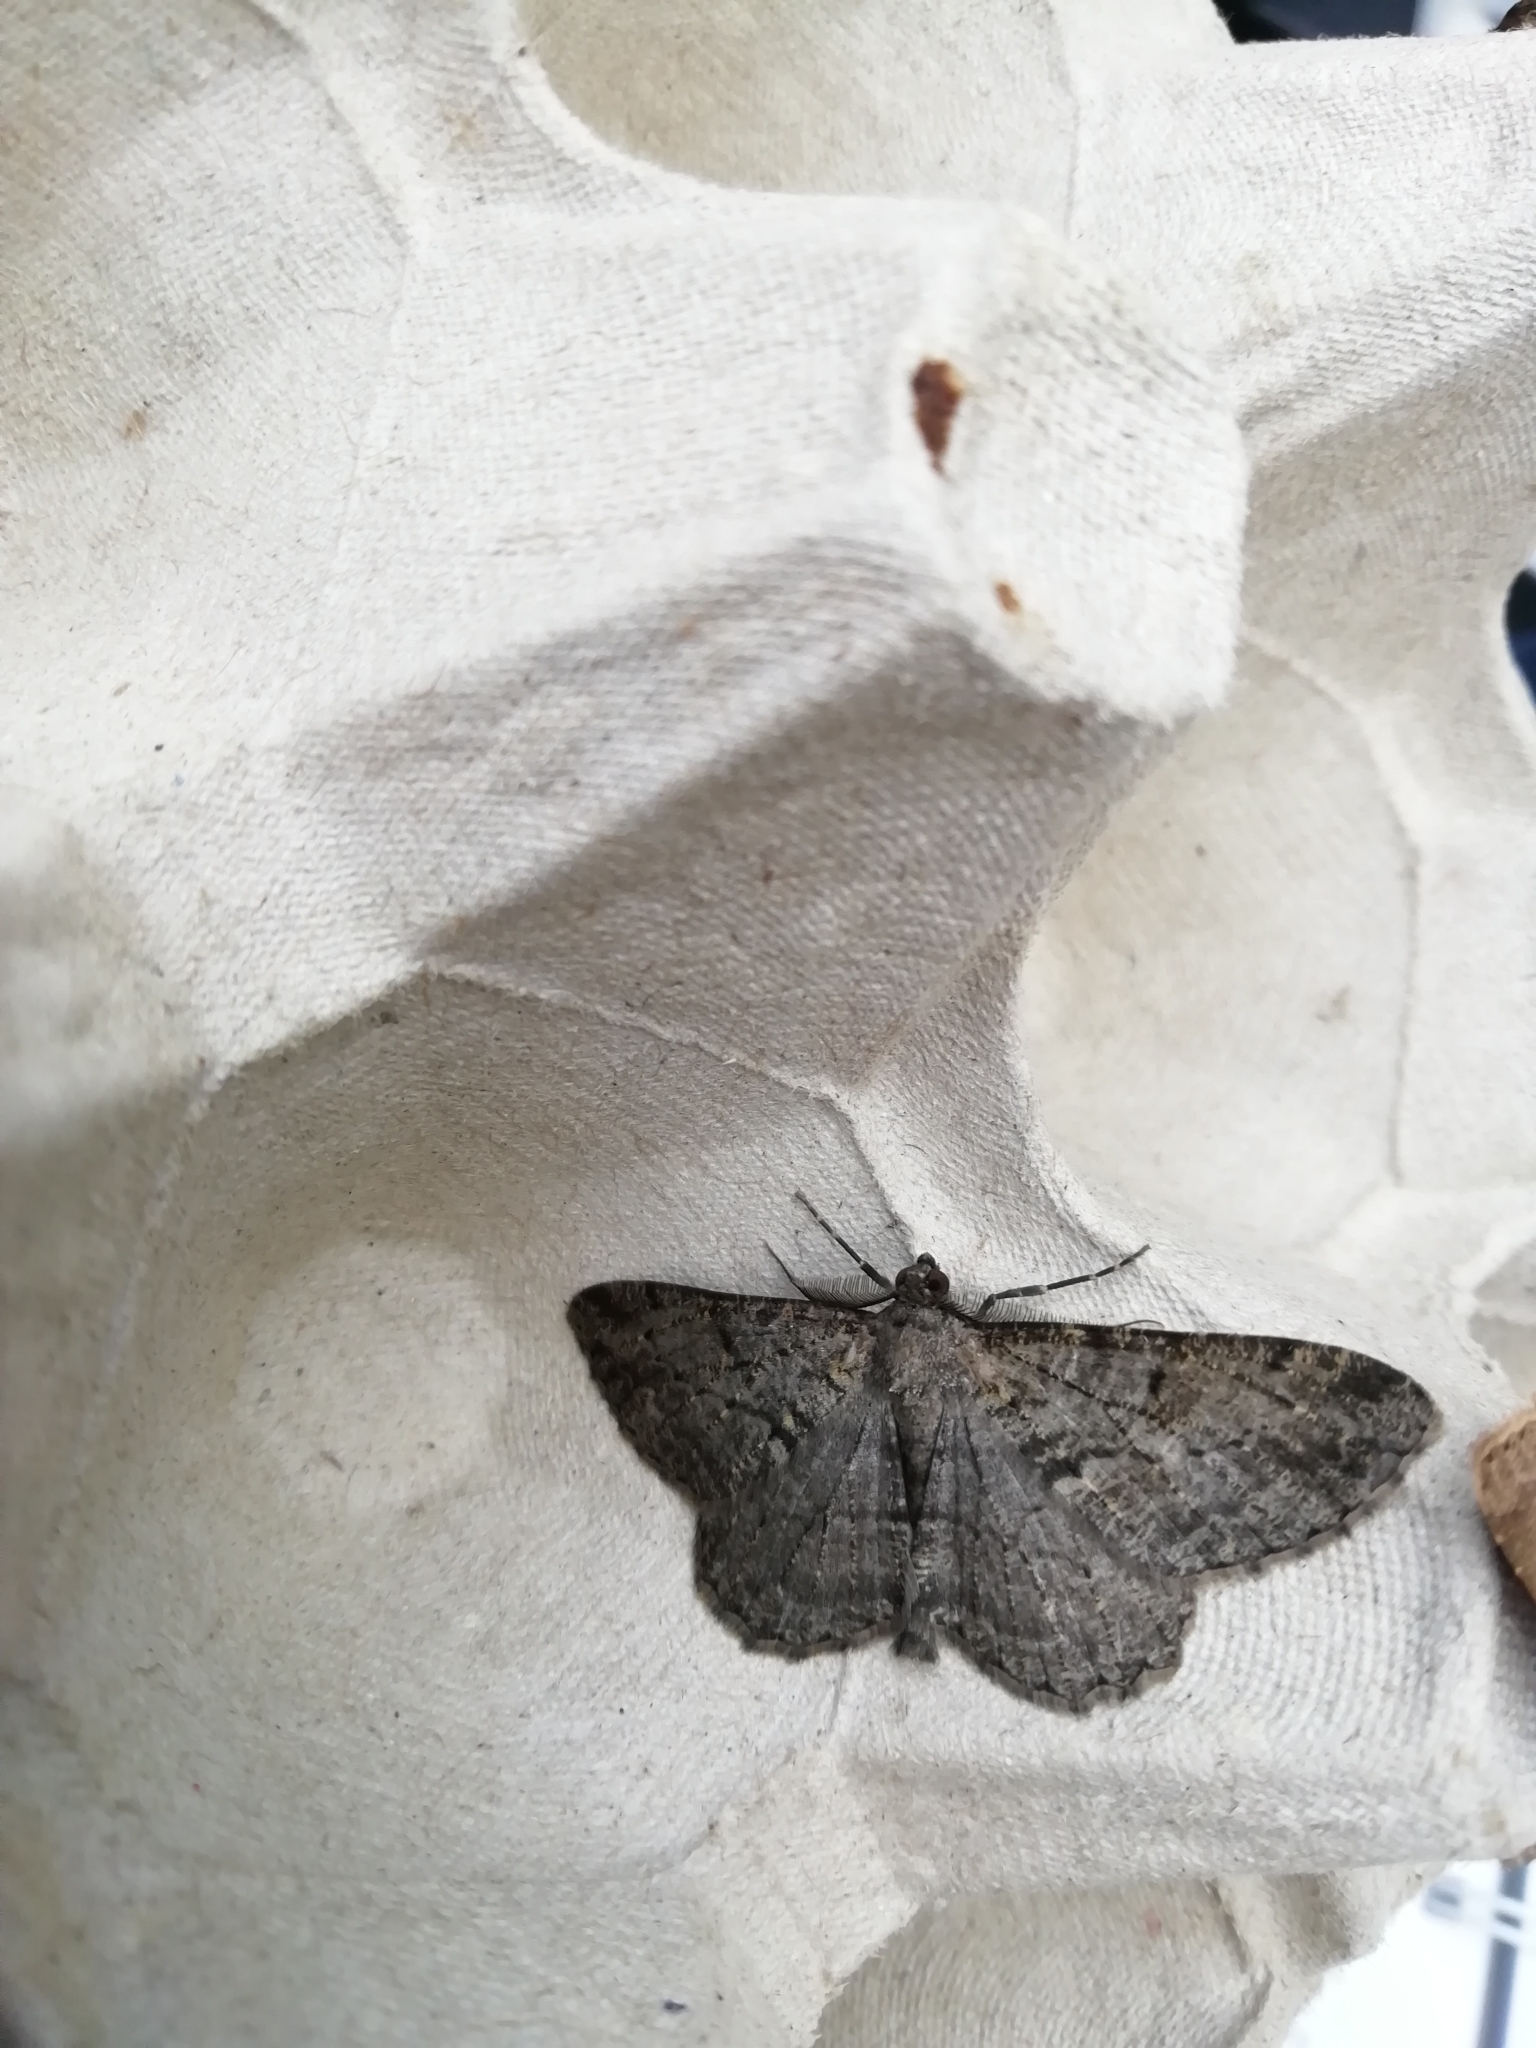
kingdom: Animalia
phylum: Arthropoda
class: Insecta
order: Lepidoptera
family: Geometridae
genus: Peribatodes
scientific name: Peribatodes rhomboidaria
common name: Willow beauty
